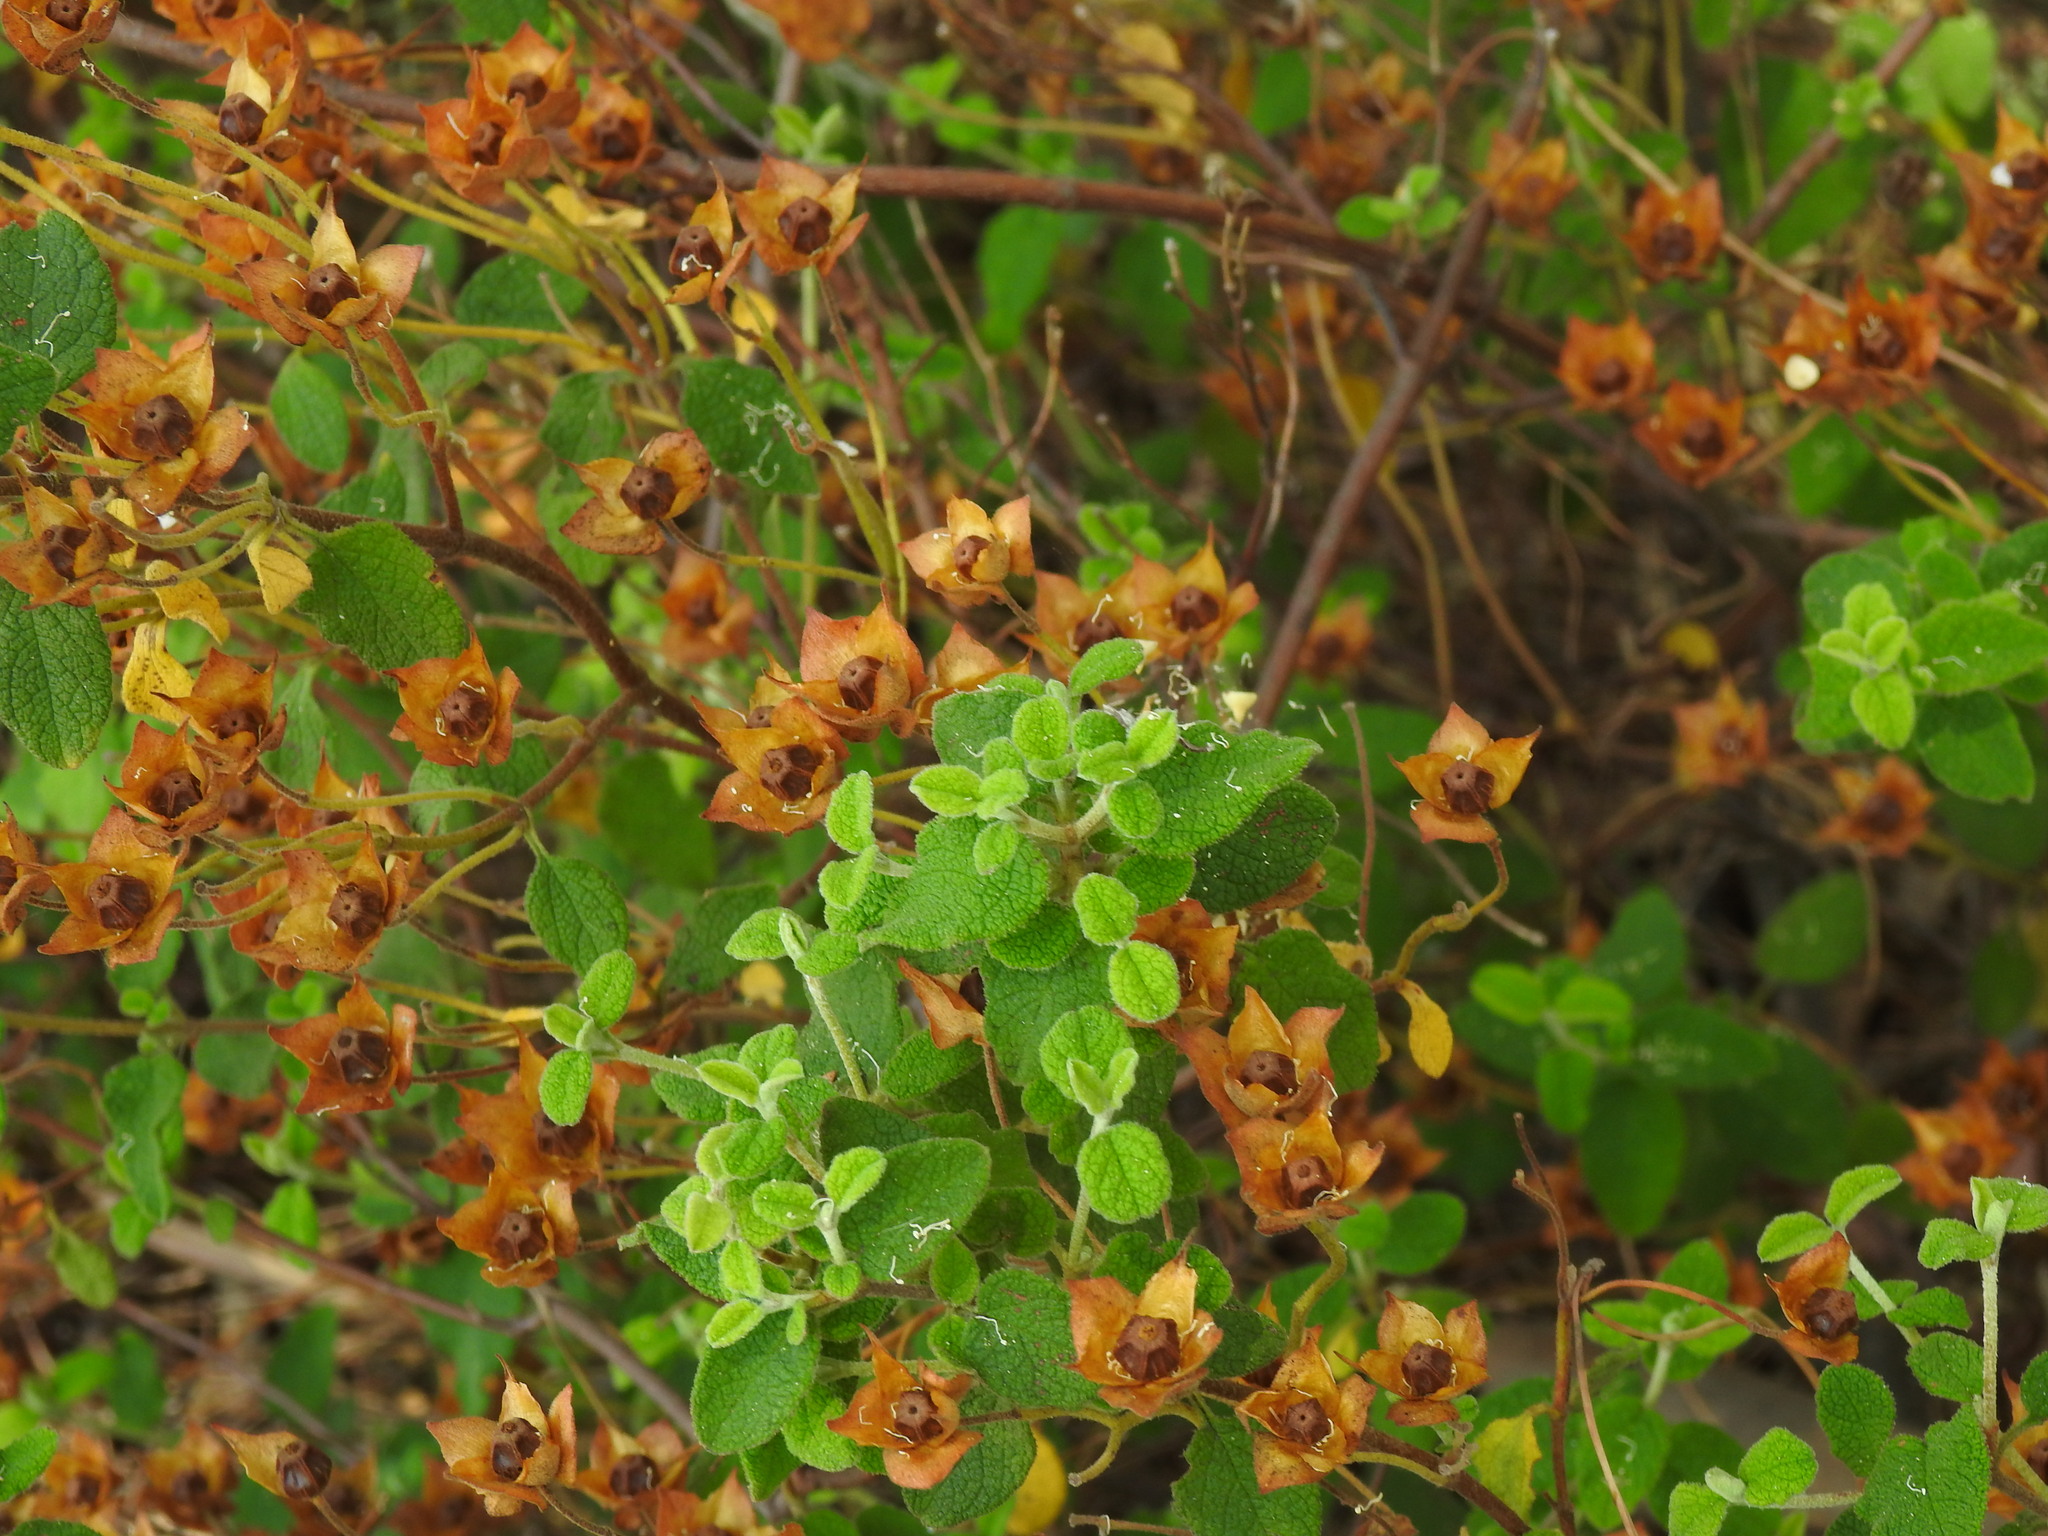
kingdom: Plantae
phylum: Tracheophyta
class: Magnoliopsida
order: Malvales
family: Cistaceae
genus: Cistus
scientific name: Cistus salviifolius
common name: Salvia cistus
